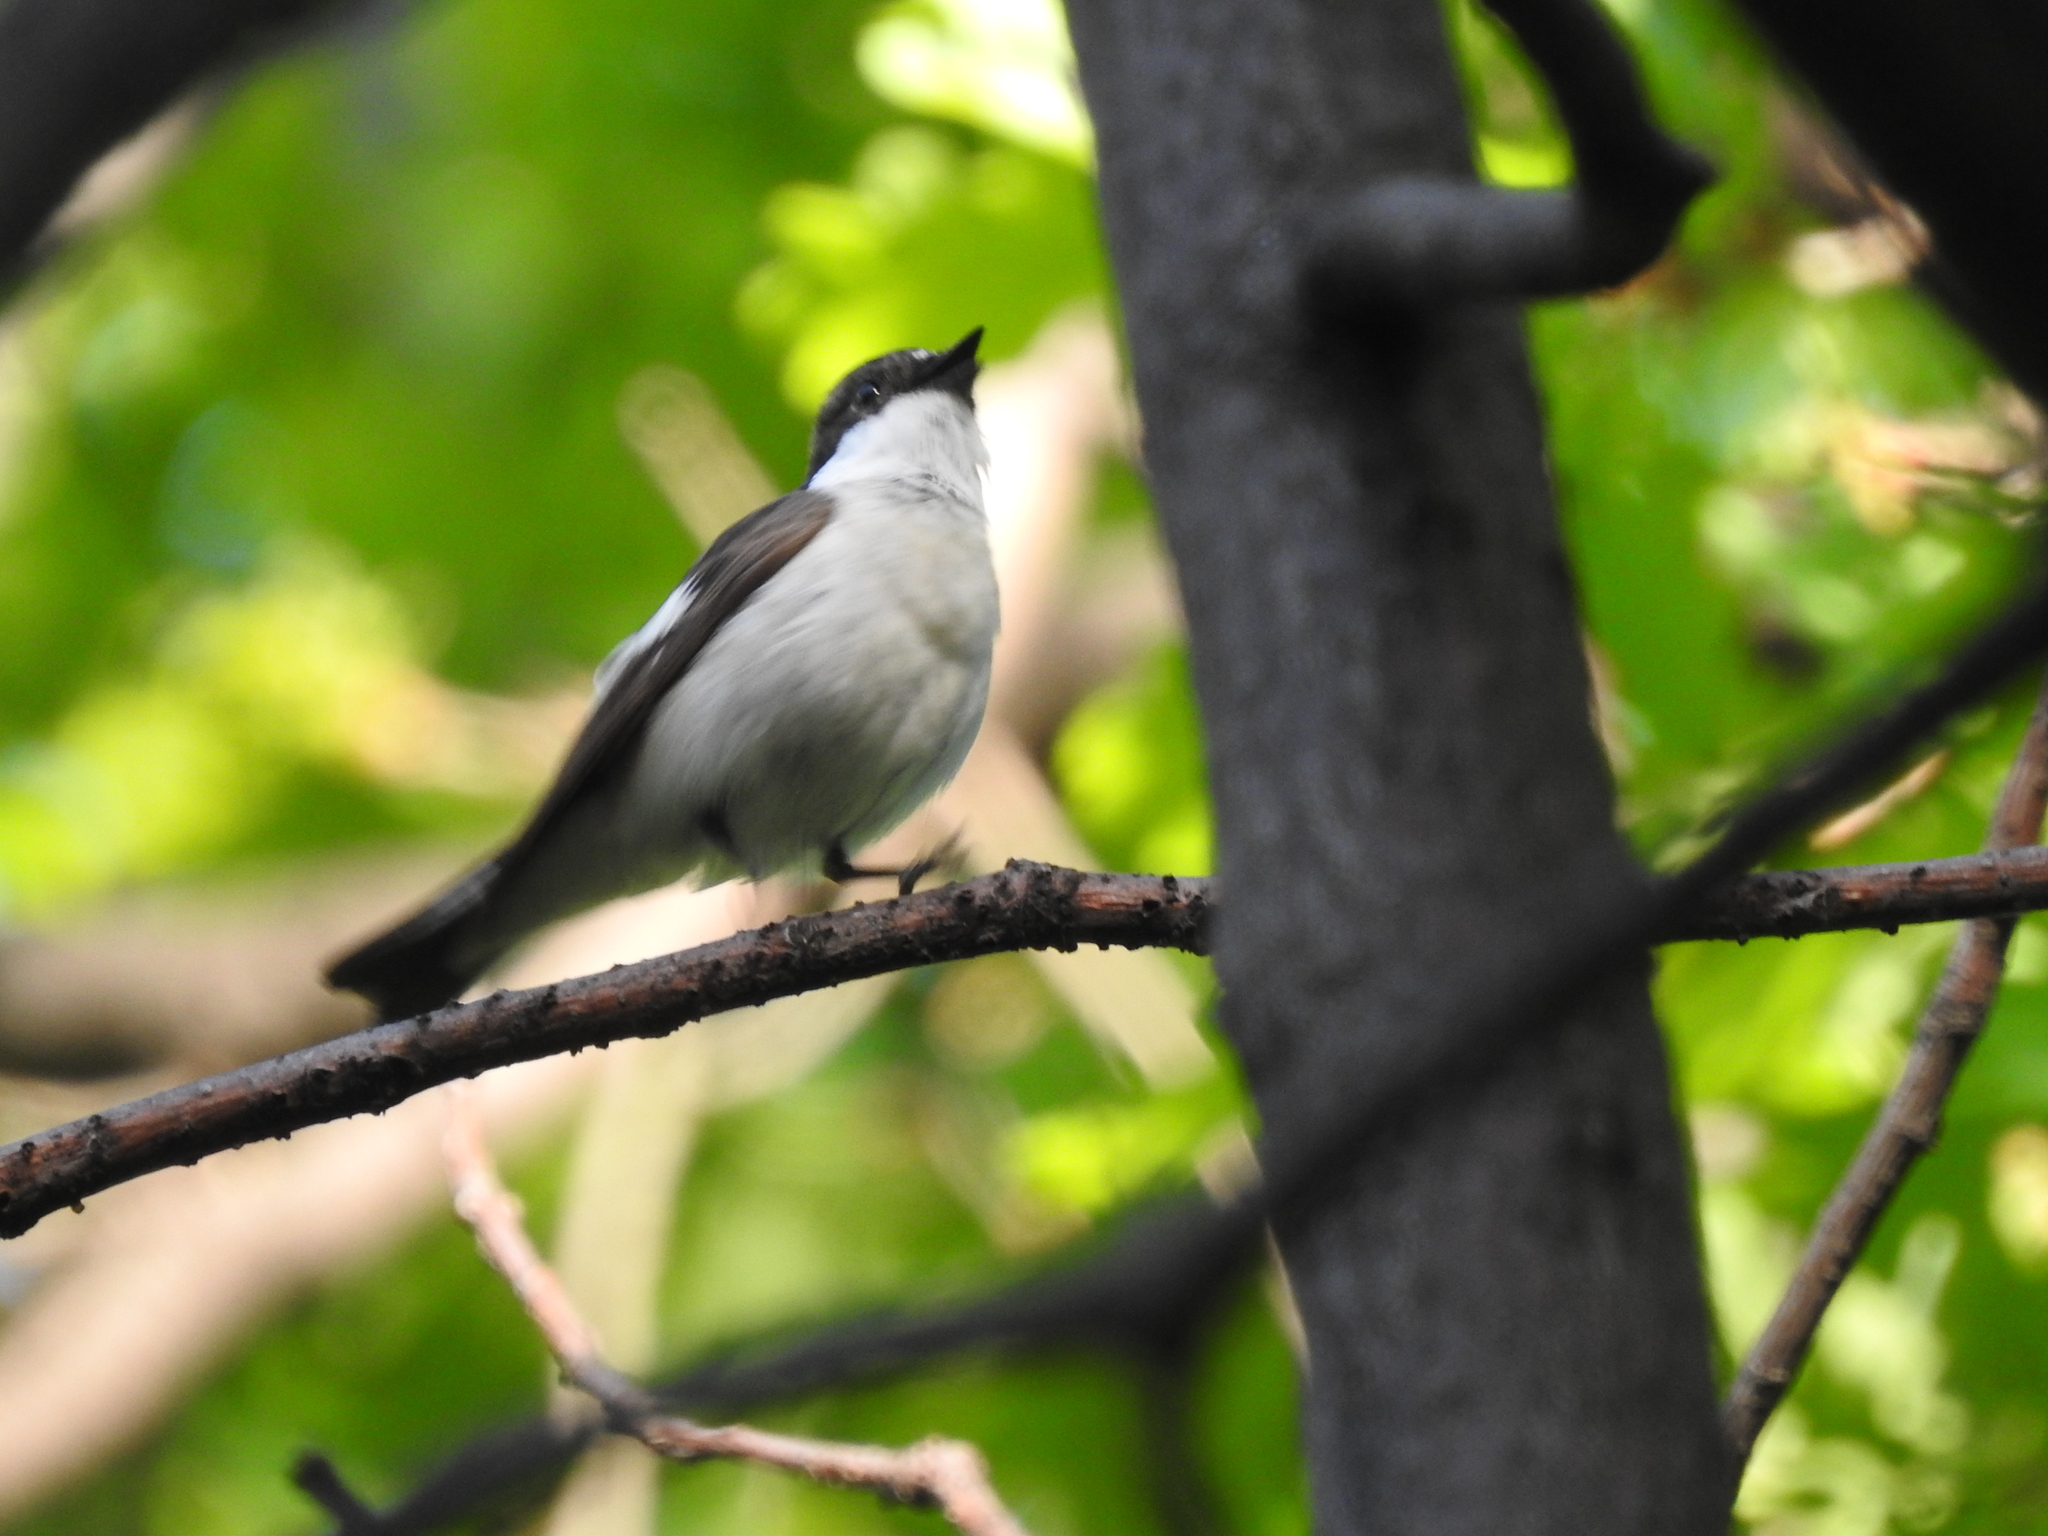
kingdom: Animalia
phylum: Chordata
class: Aves
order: Passeriformes
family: Muscicapidae
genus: Ficedula
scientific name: Ficedula hypoleuca
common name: European pied flycatcher
